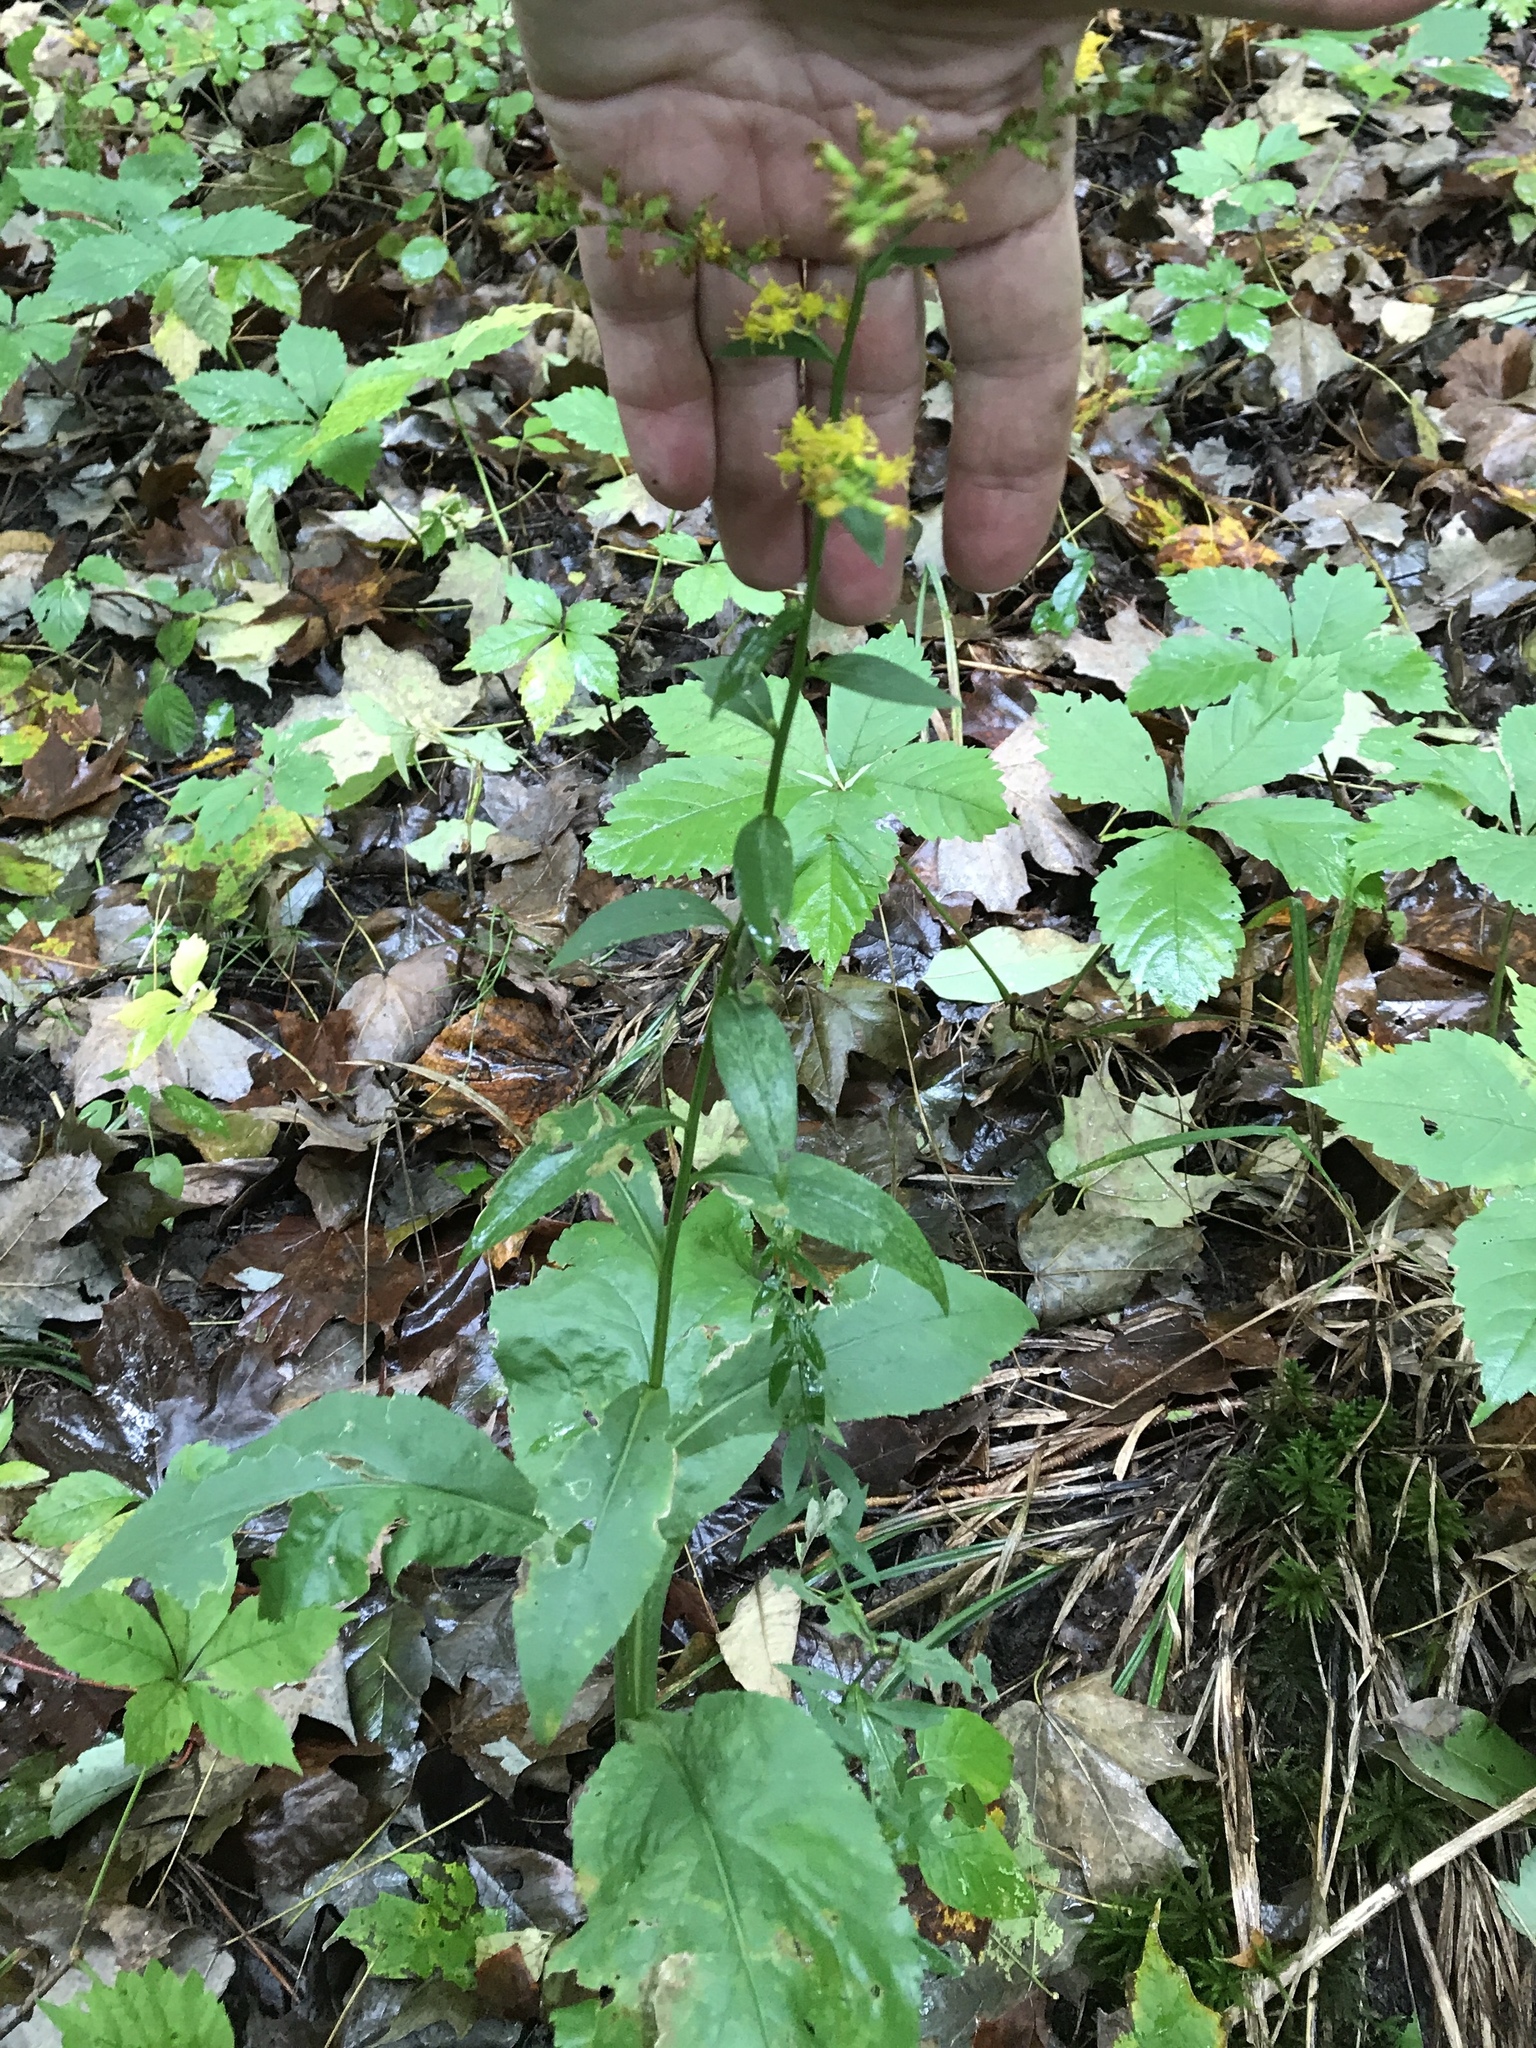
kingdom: Plantae
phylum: Tracheophyta
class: Magnoliopsida
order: Asterales
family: Asteraceae
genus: Solidago
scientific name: Solidago patula
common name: Rough-leaf goldenrod
